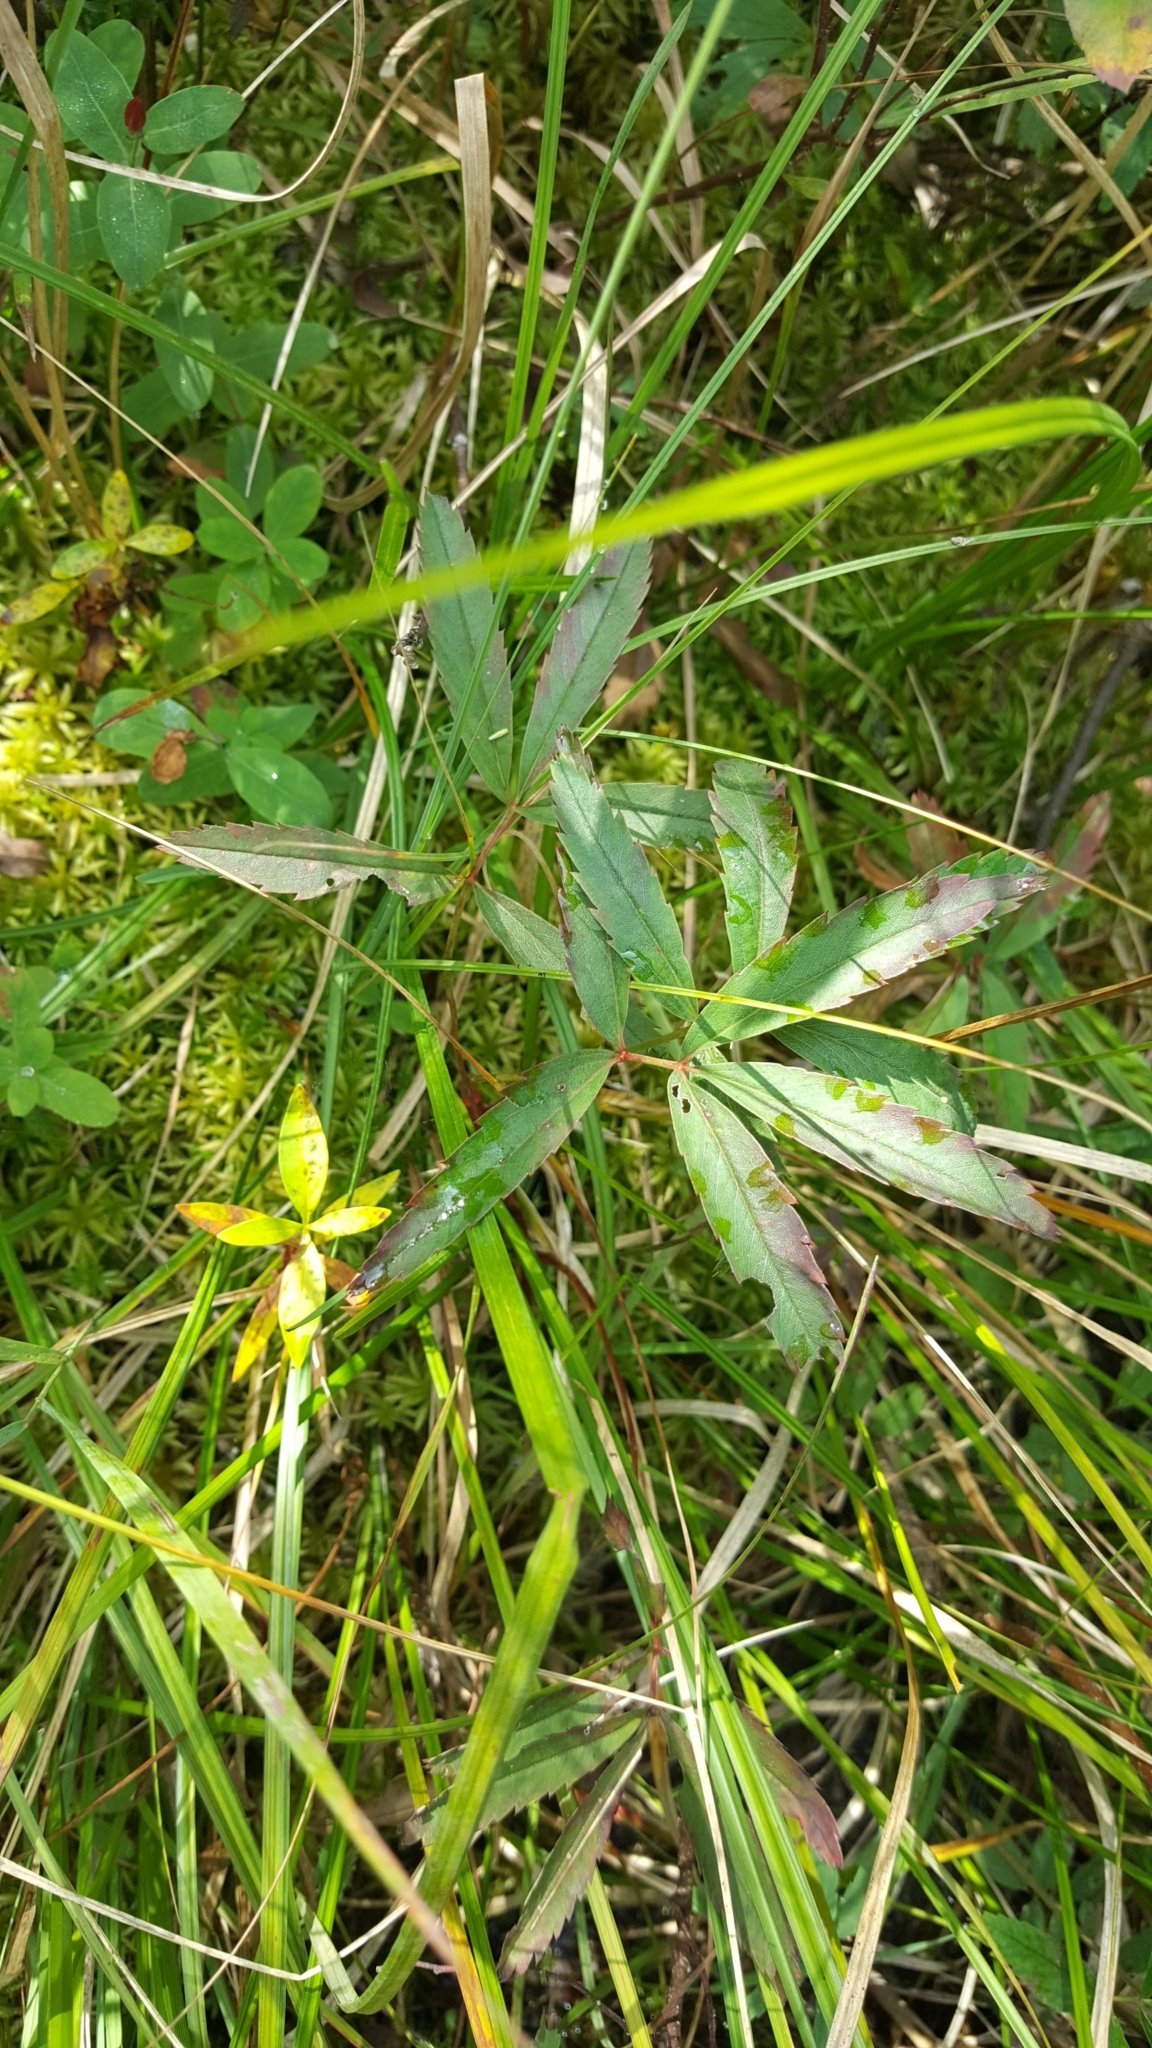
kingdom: Plantae
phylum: Tracheophyta
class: Magnoliopsida
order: Rosales
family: Rosaceae
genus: Comarum
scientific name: Comarum palustre
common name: Marsh cinquefoil
